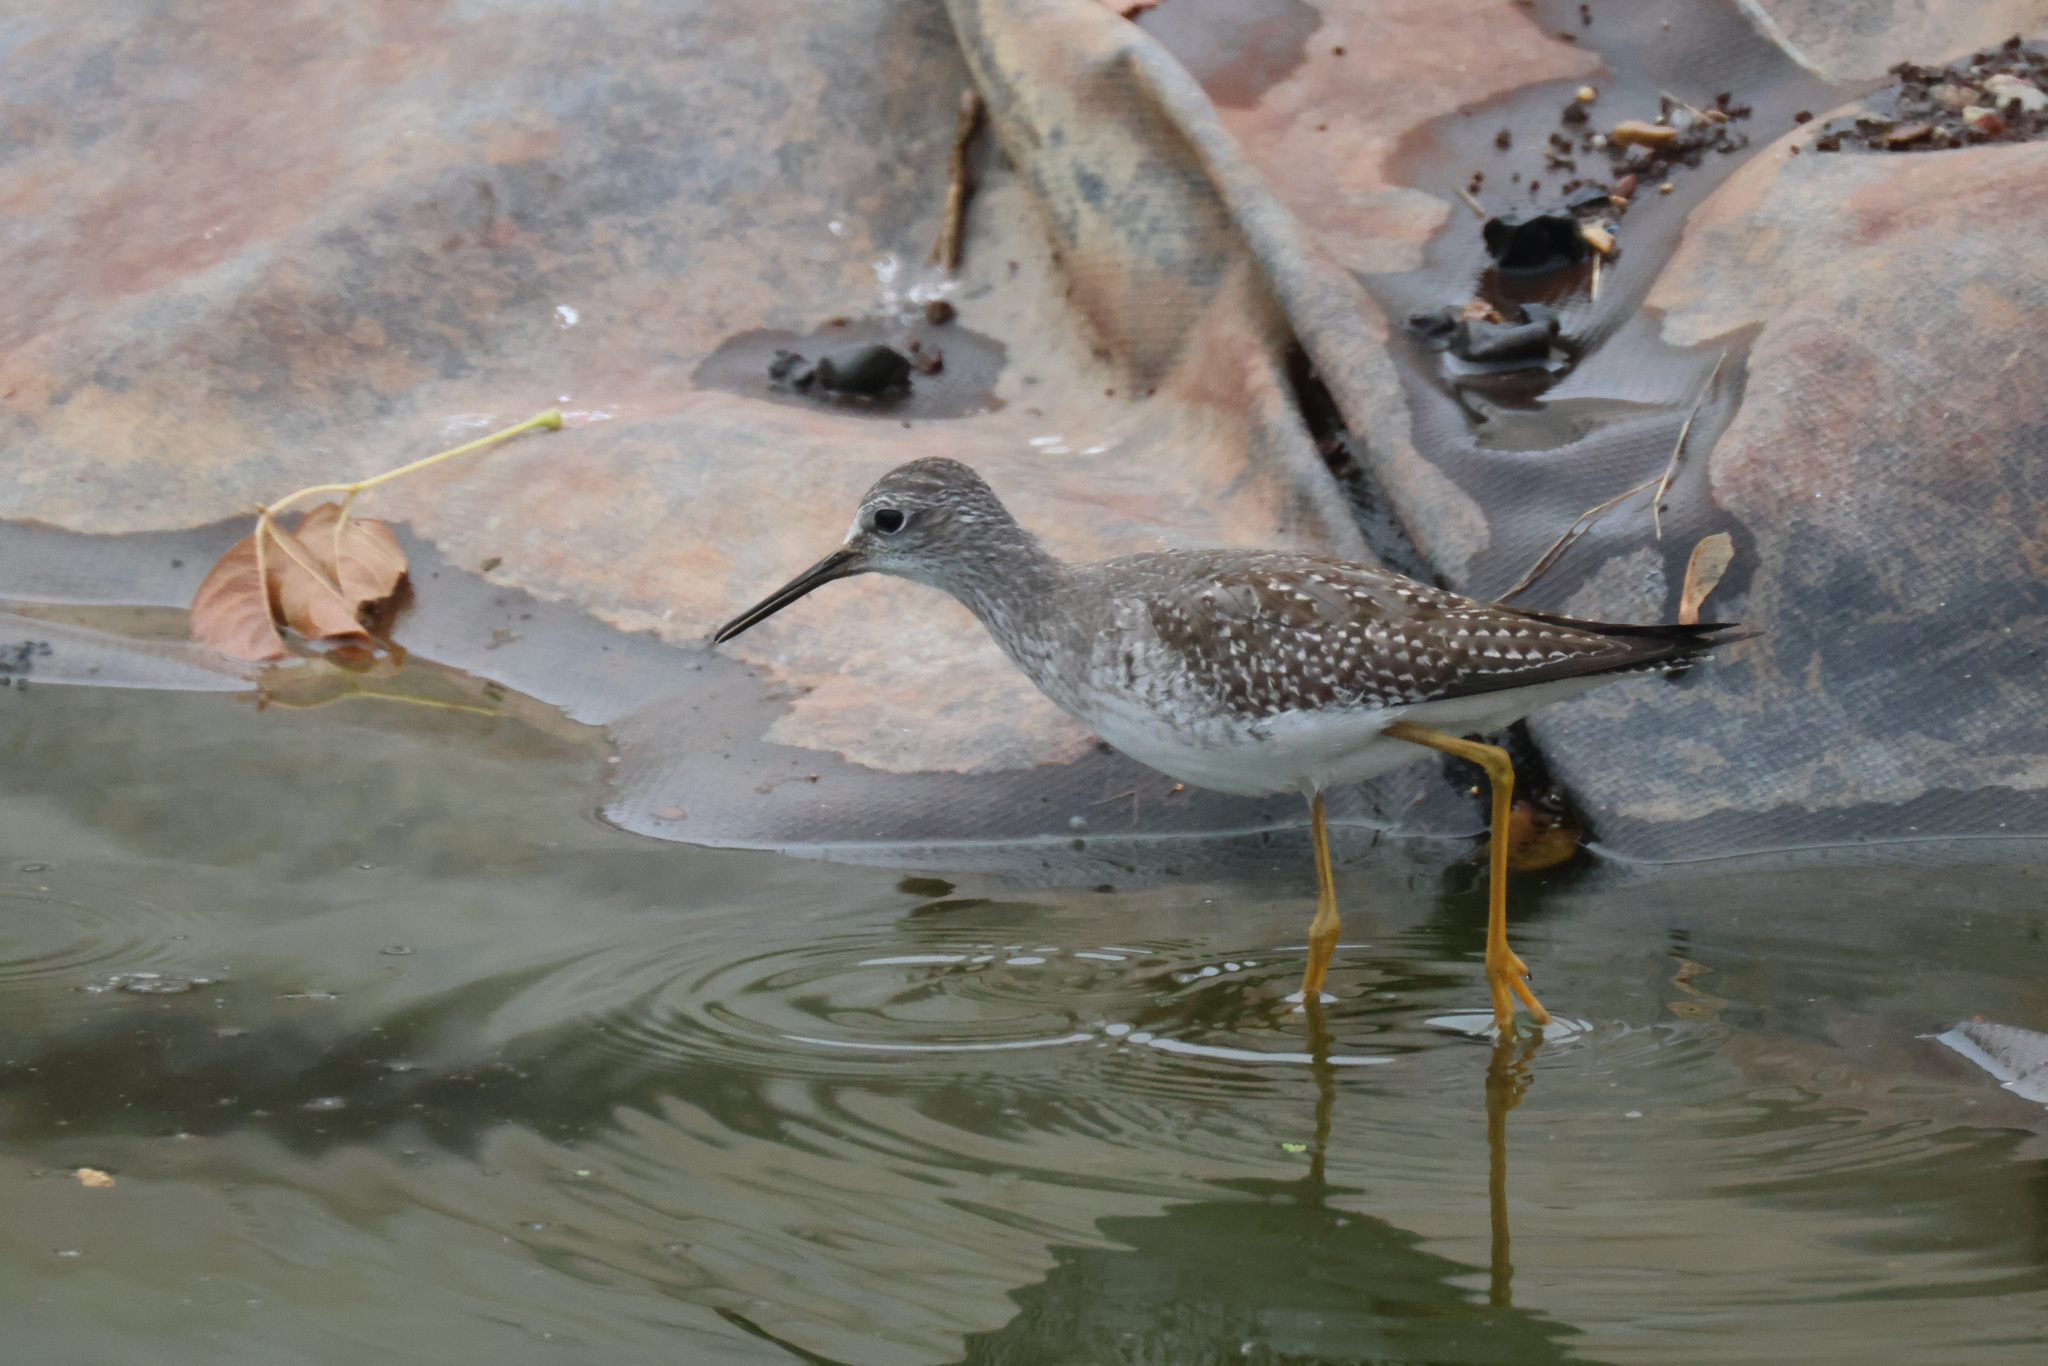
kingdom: Animalia
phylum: Chordata
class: Aves
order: Charadriiformes
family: Scolopacidae
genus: Tringa
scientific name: Tringa flavipes
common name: Lesser yellowlegs
